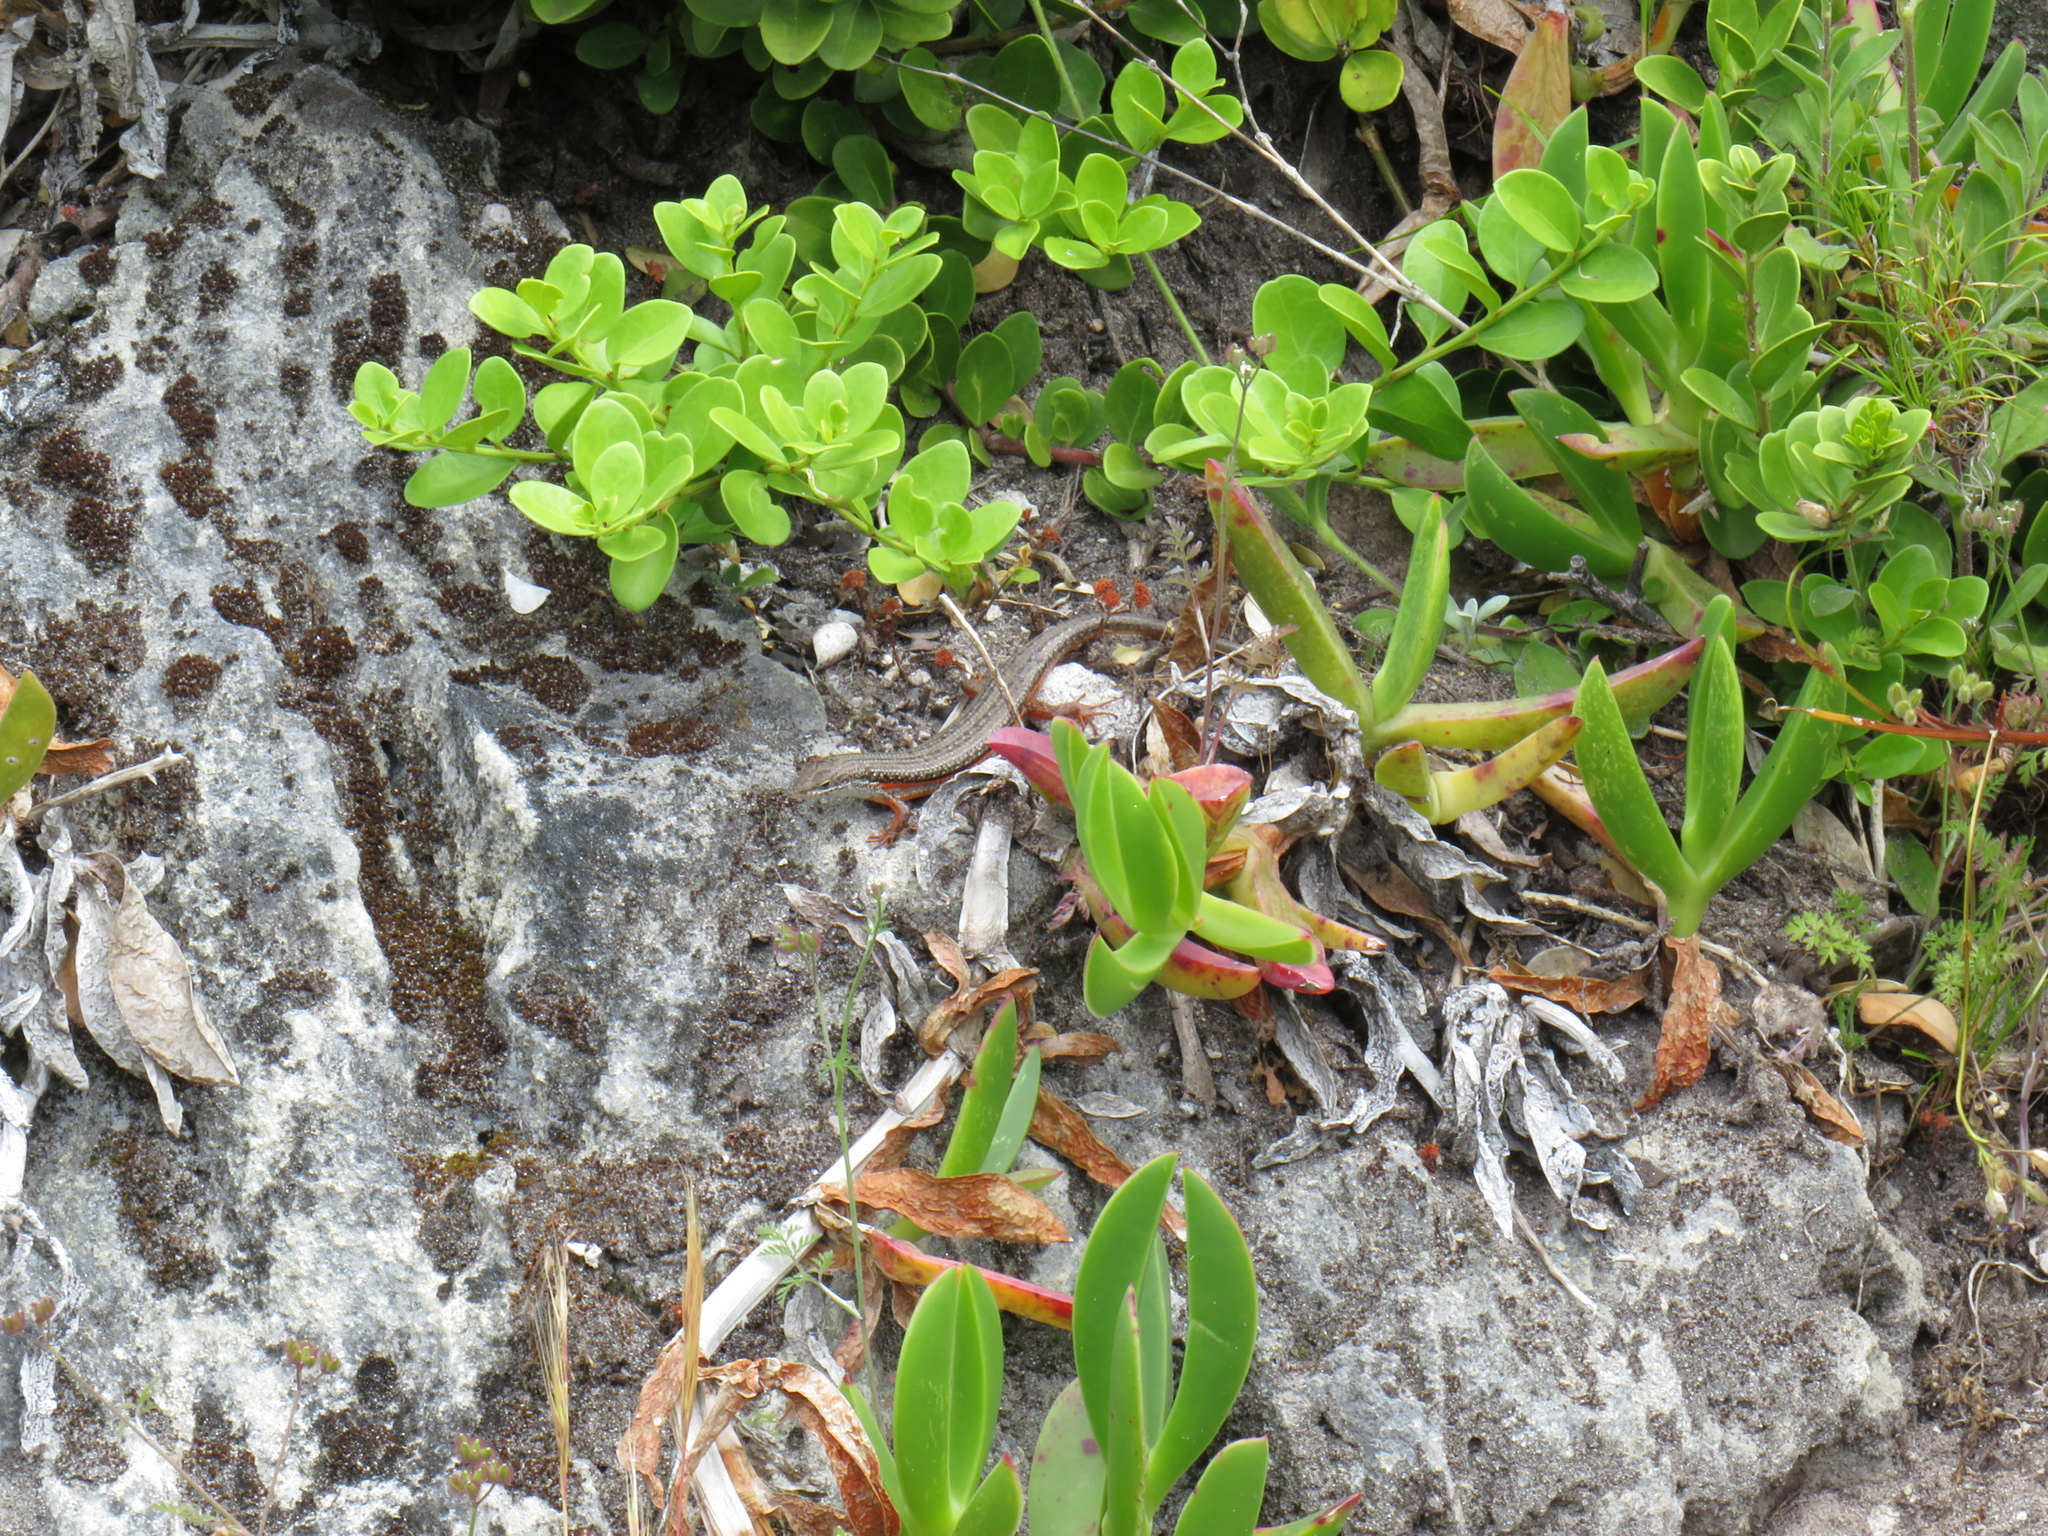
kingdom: Animalia
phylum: Chordata
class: Squamata
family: Scincidae
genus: Trachylepis
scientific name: Trachylepis homalocephala
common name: Red-sided skink
